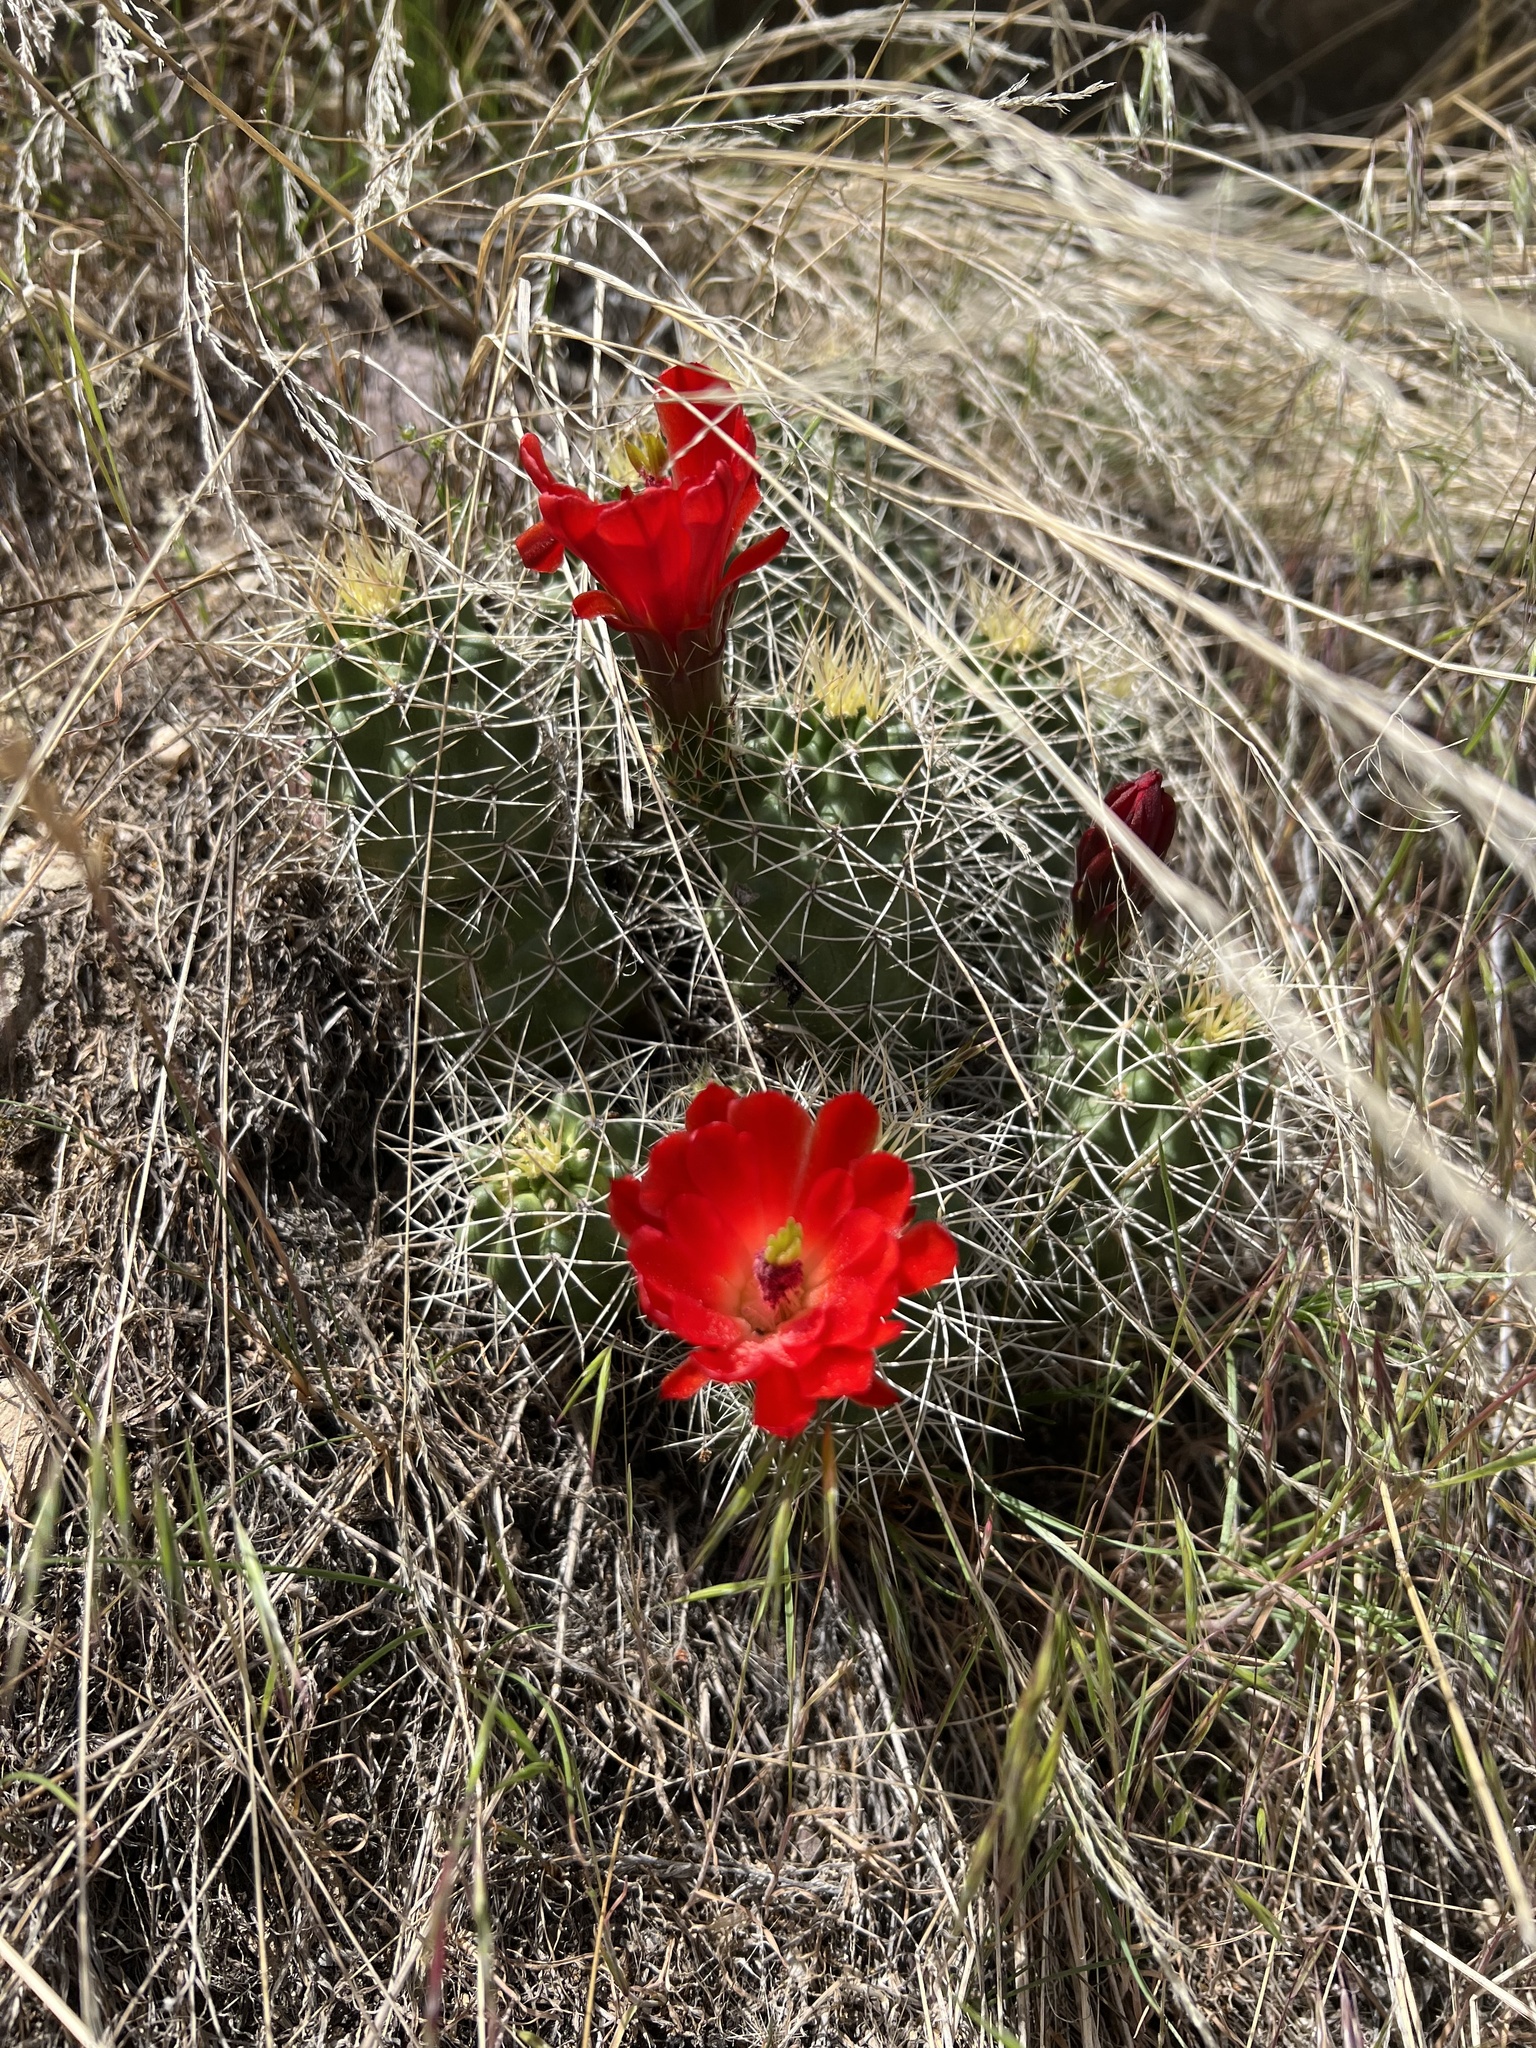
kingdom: Plantae
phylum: Tracheophyta
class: Magnoliopsida
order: Caryophyllales
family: Cactaceae
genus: Echinocereus
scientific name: Echinocereus triglochidiatus
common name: Claretcup hedgehog
